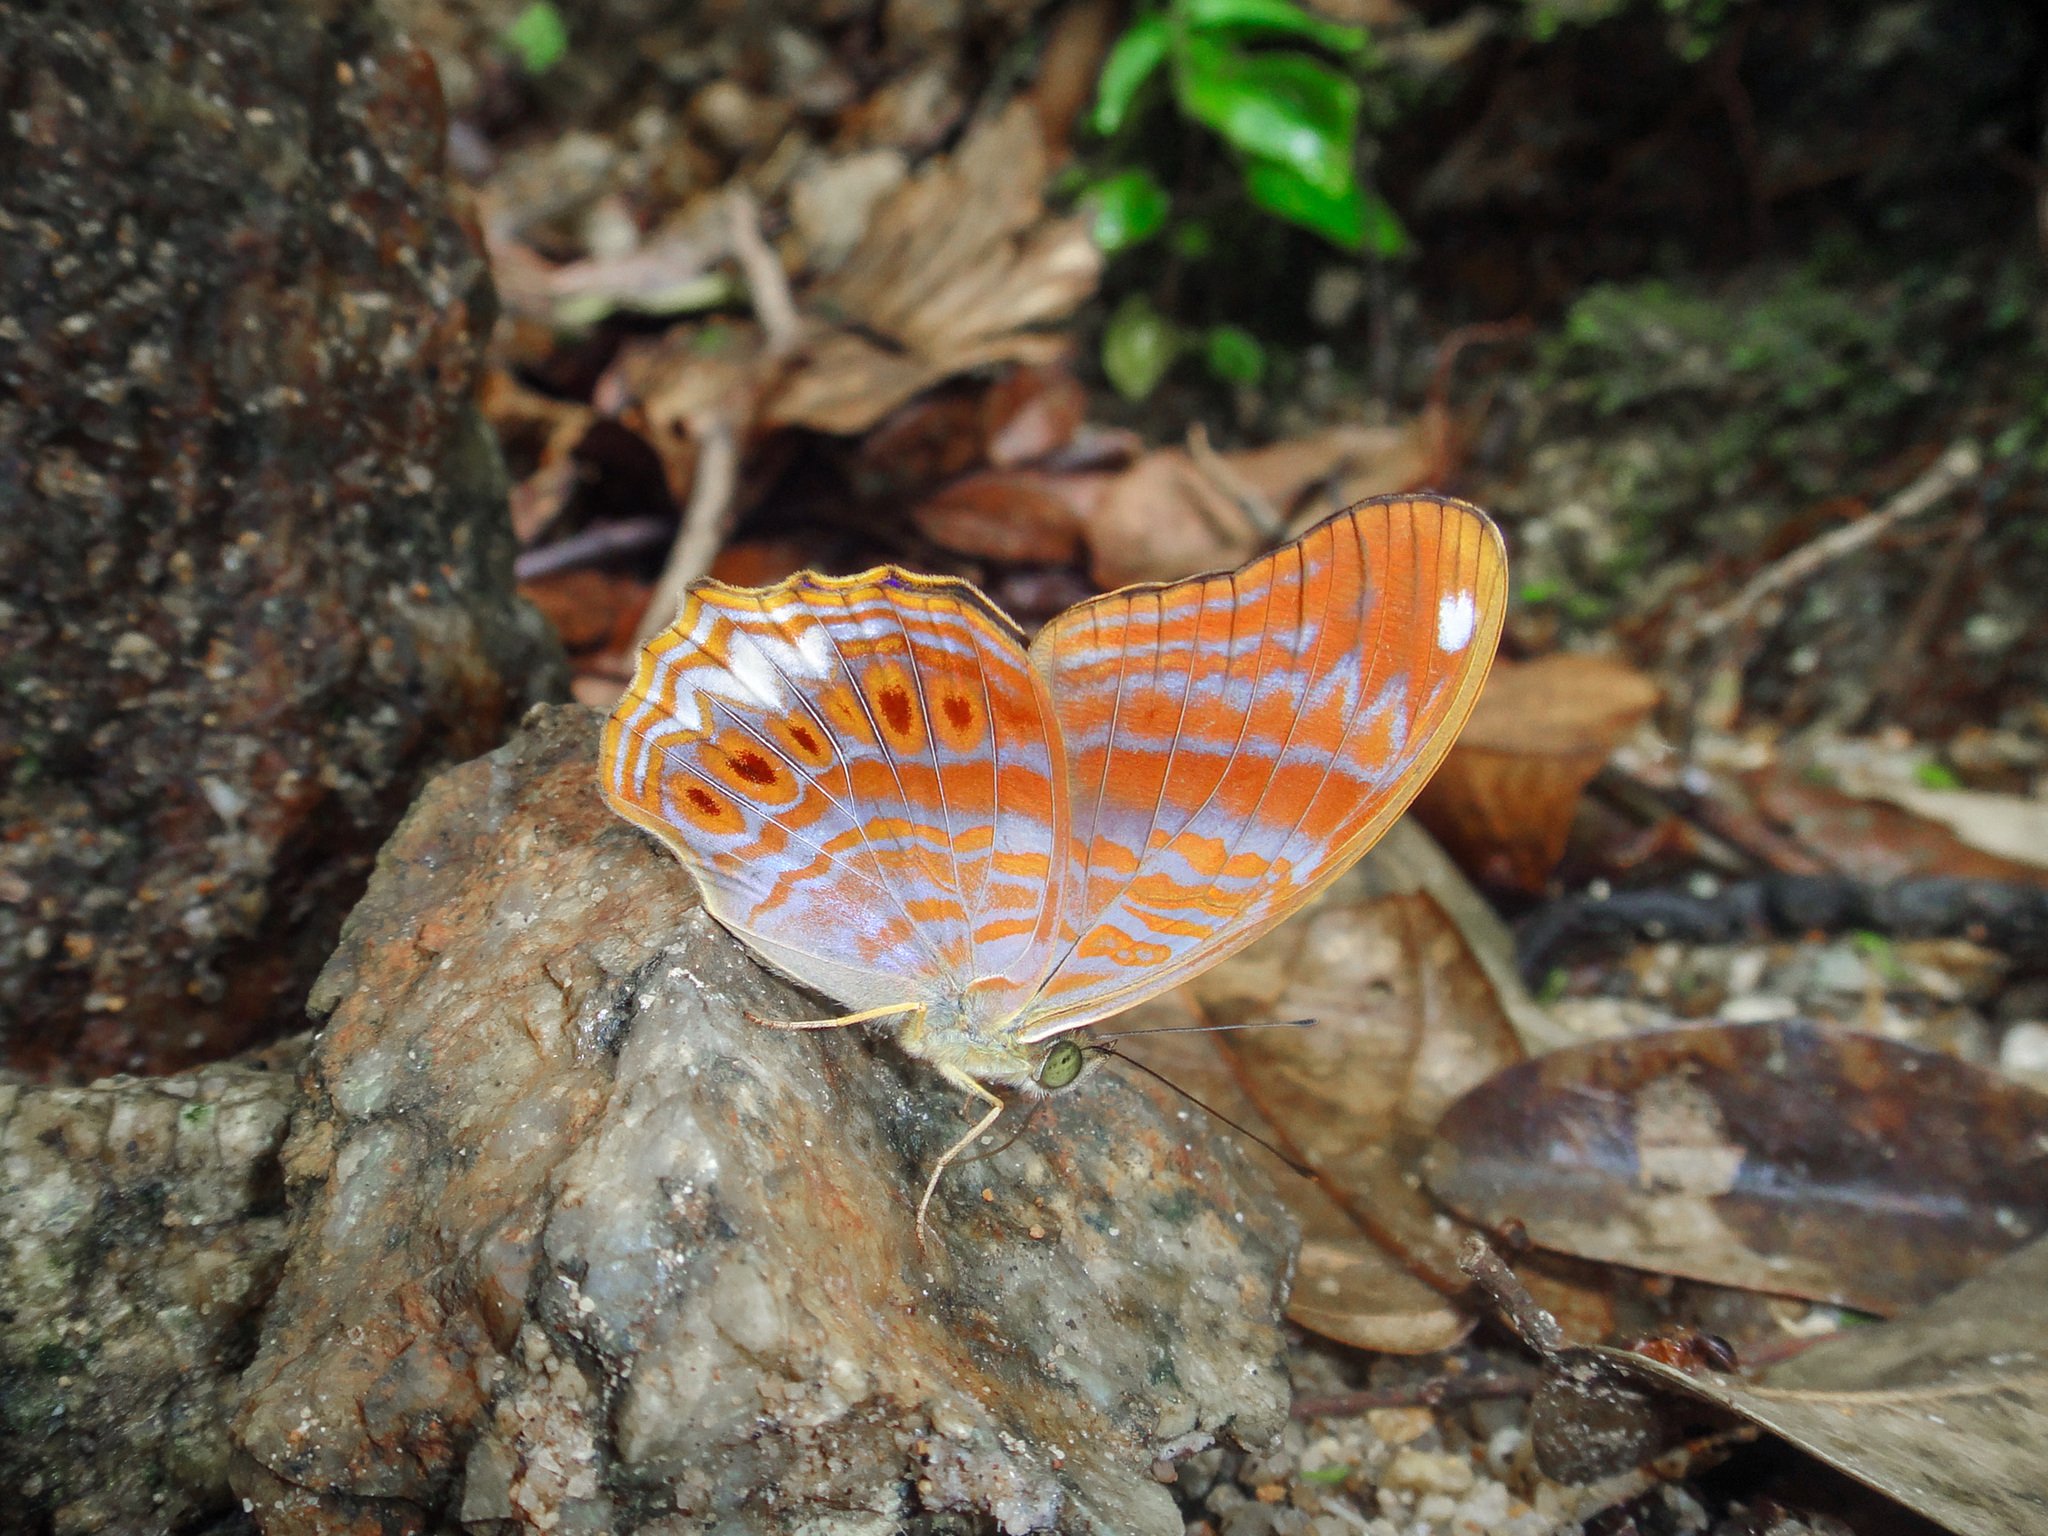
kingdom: Animalia
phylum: Arthropoda
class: Insecta
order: Lepidoptera
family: Nymphalidae
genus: Terinos
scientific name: Terinos terpander
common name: Royal assyrian
